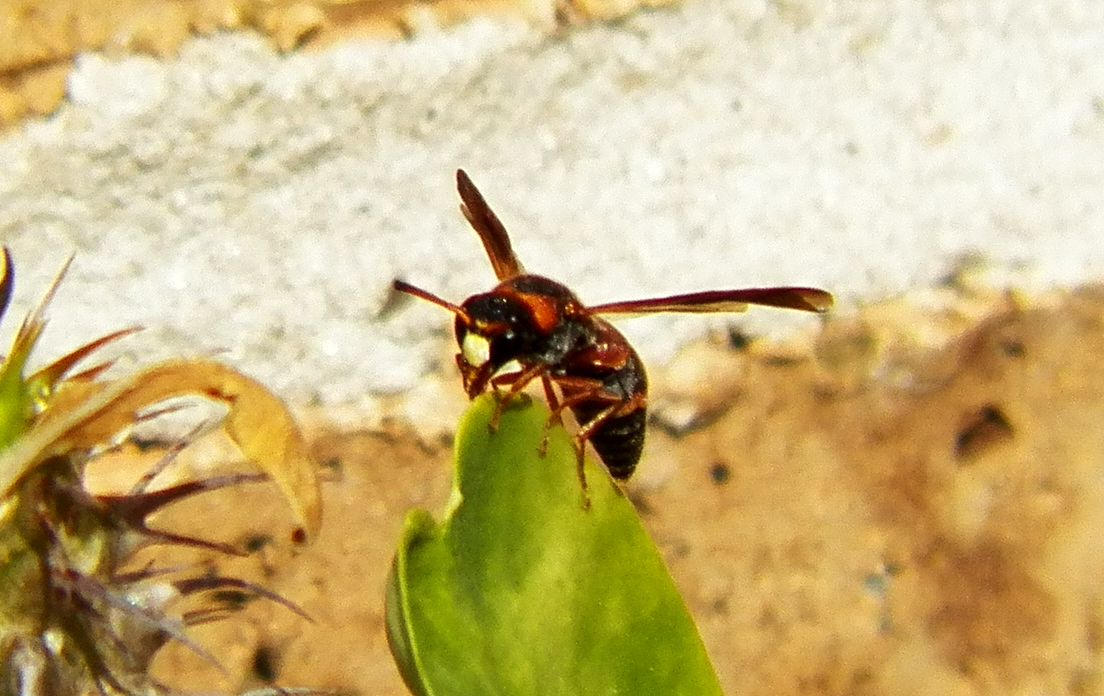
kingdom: Animalia
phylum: Arthropoda
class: Insecta
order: Hymenoptera
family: Eumenidae
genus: Pachodynerus
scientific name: Pachodynerus erynnis
